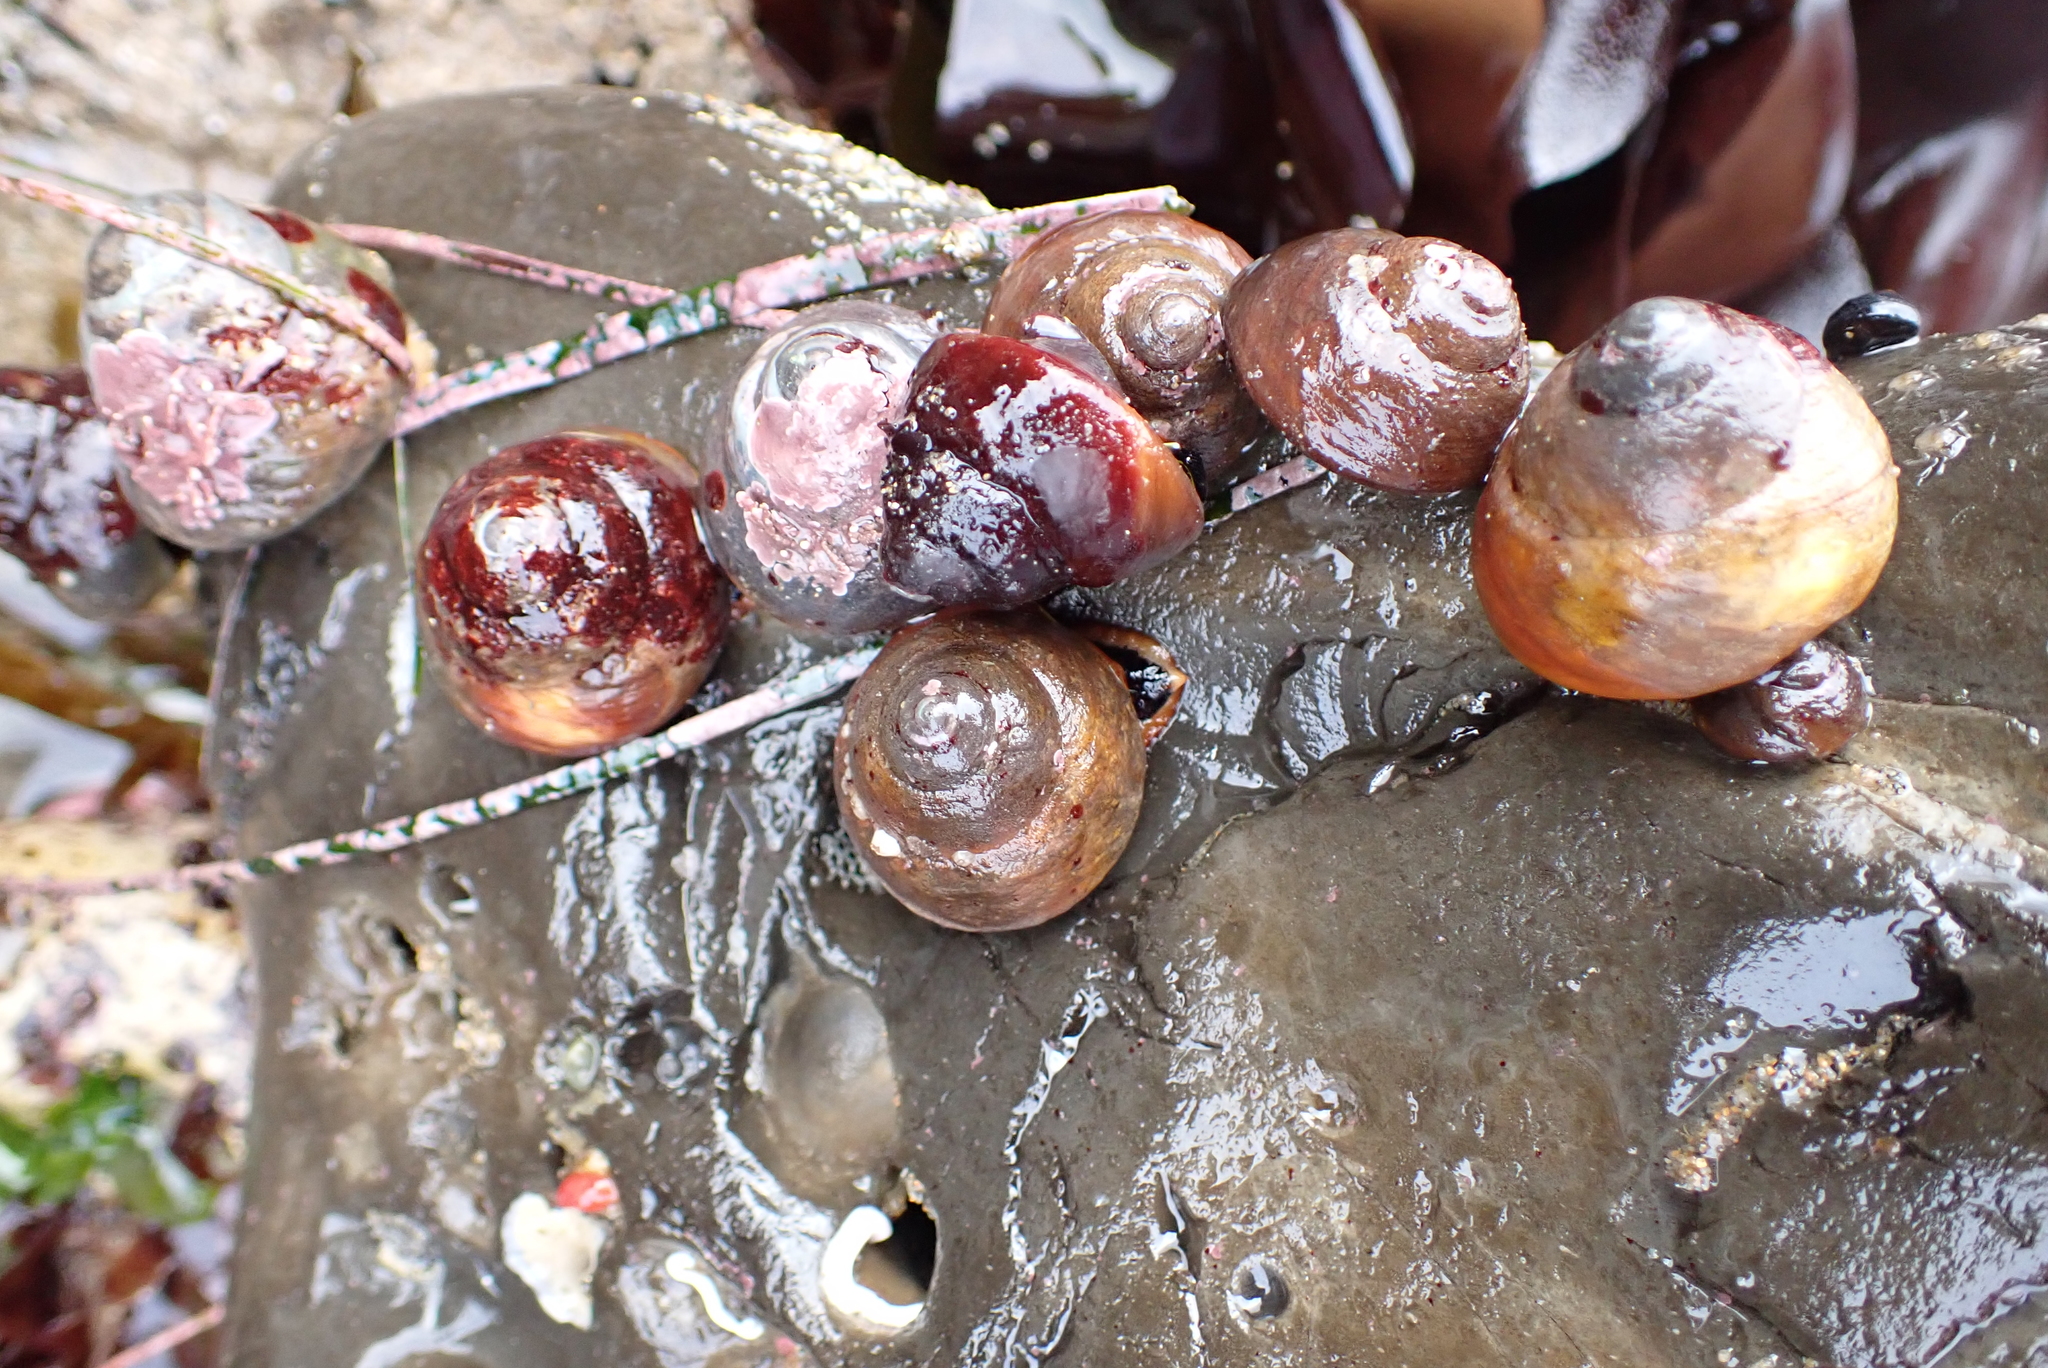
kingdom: Animalia
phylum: Mollusca
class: Gastropoda
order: Trochida
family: Tegulidae
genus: Tegula
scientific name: Tegula brunnea
